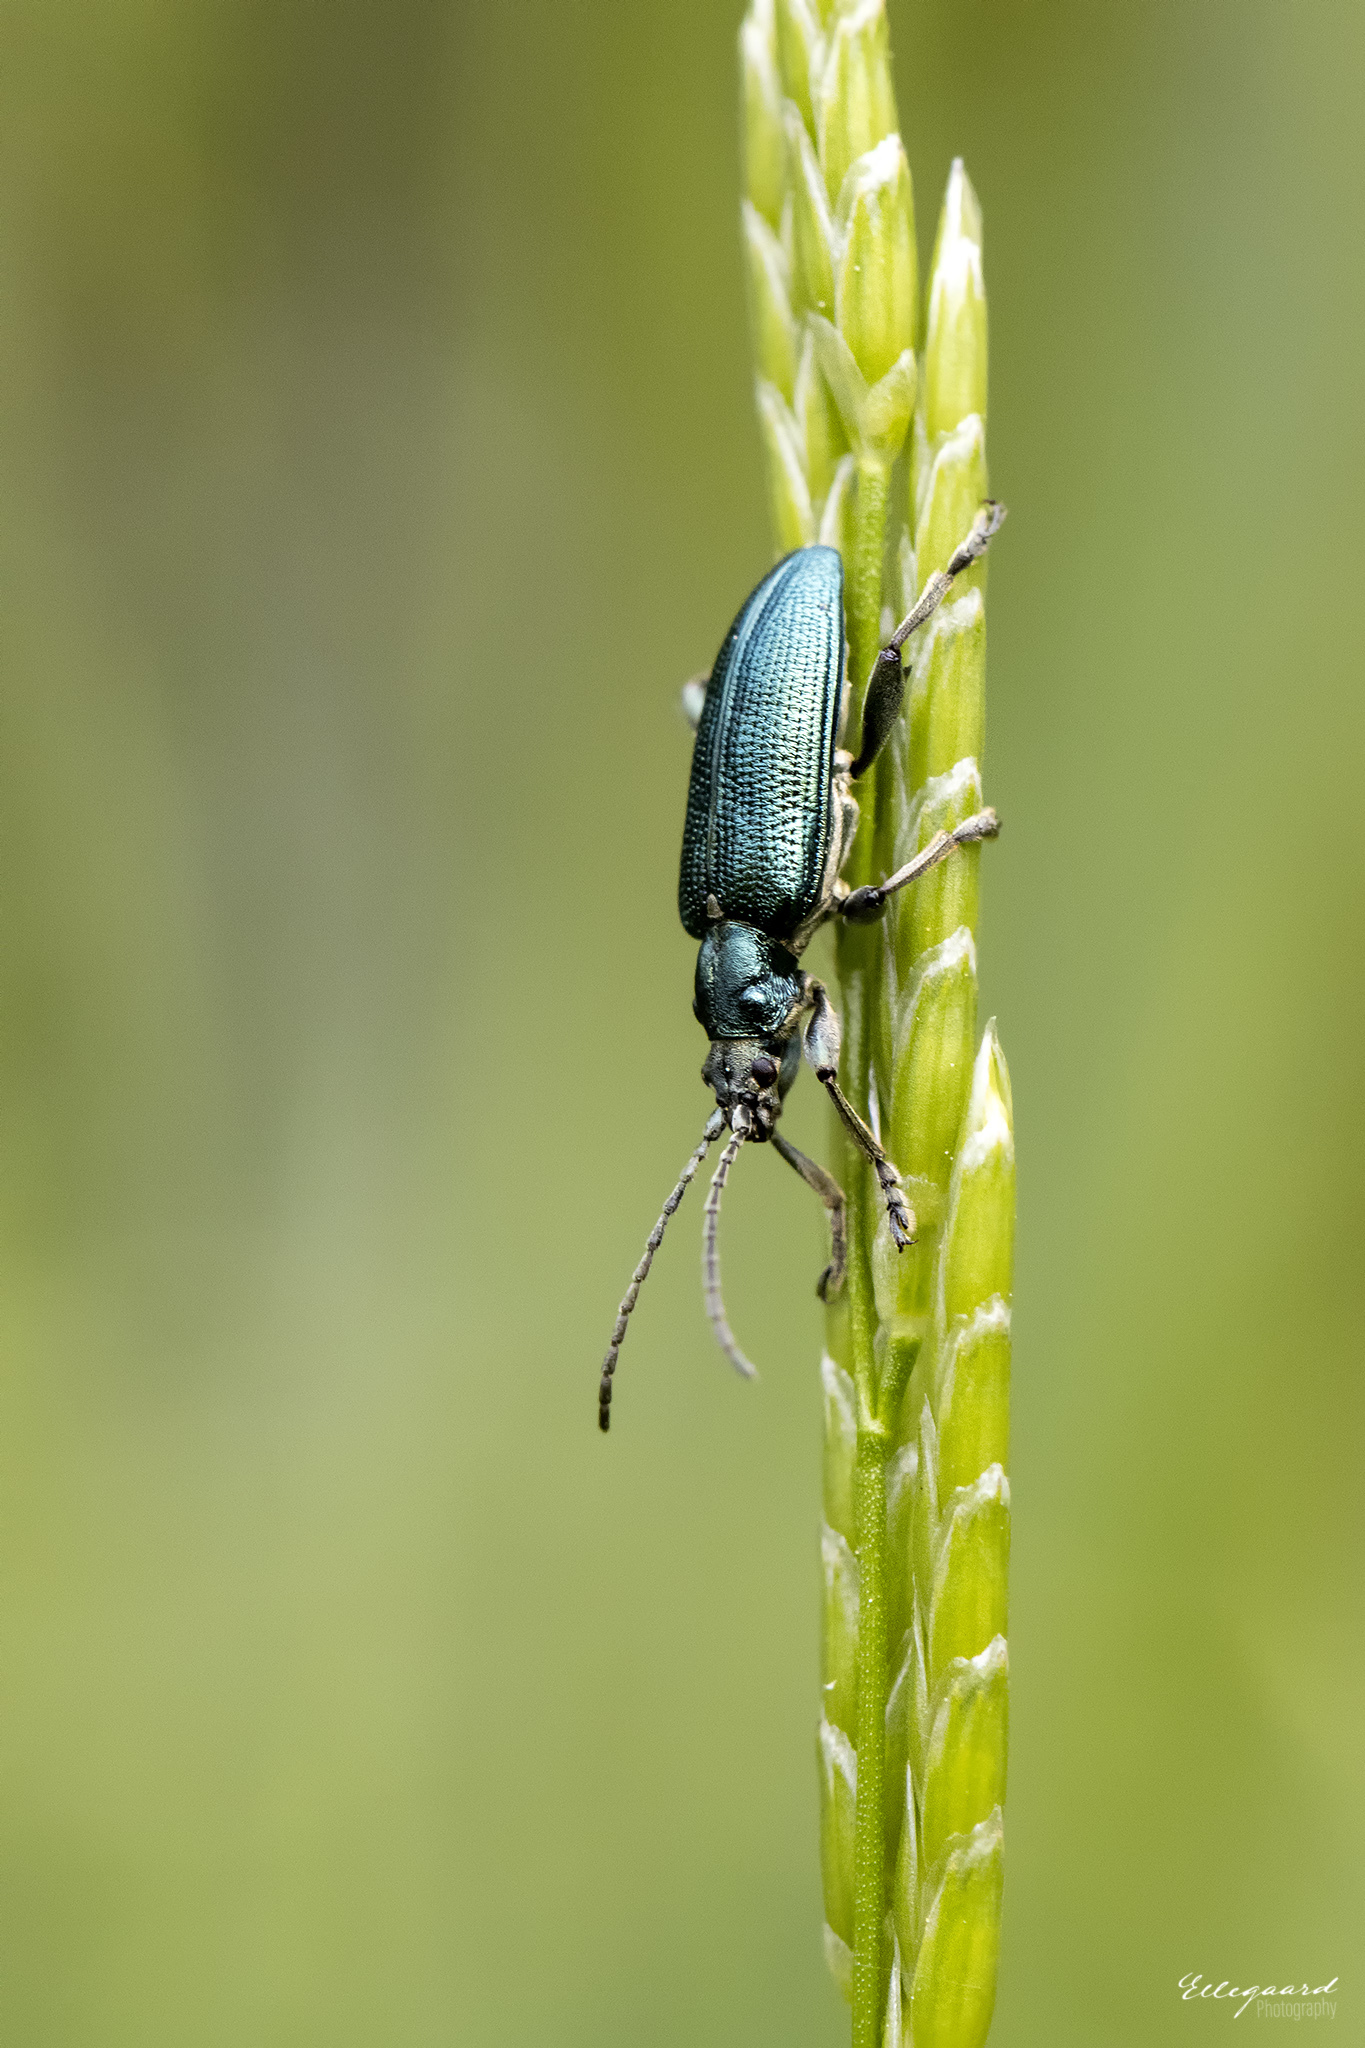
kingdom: Animalia
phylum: Arthropoda
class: Insecta
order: Coleoptera
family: Chrysomelidae
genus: Plateumaris
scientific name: Plateumaris sericea
